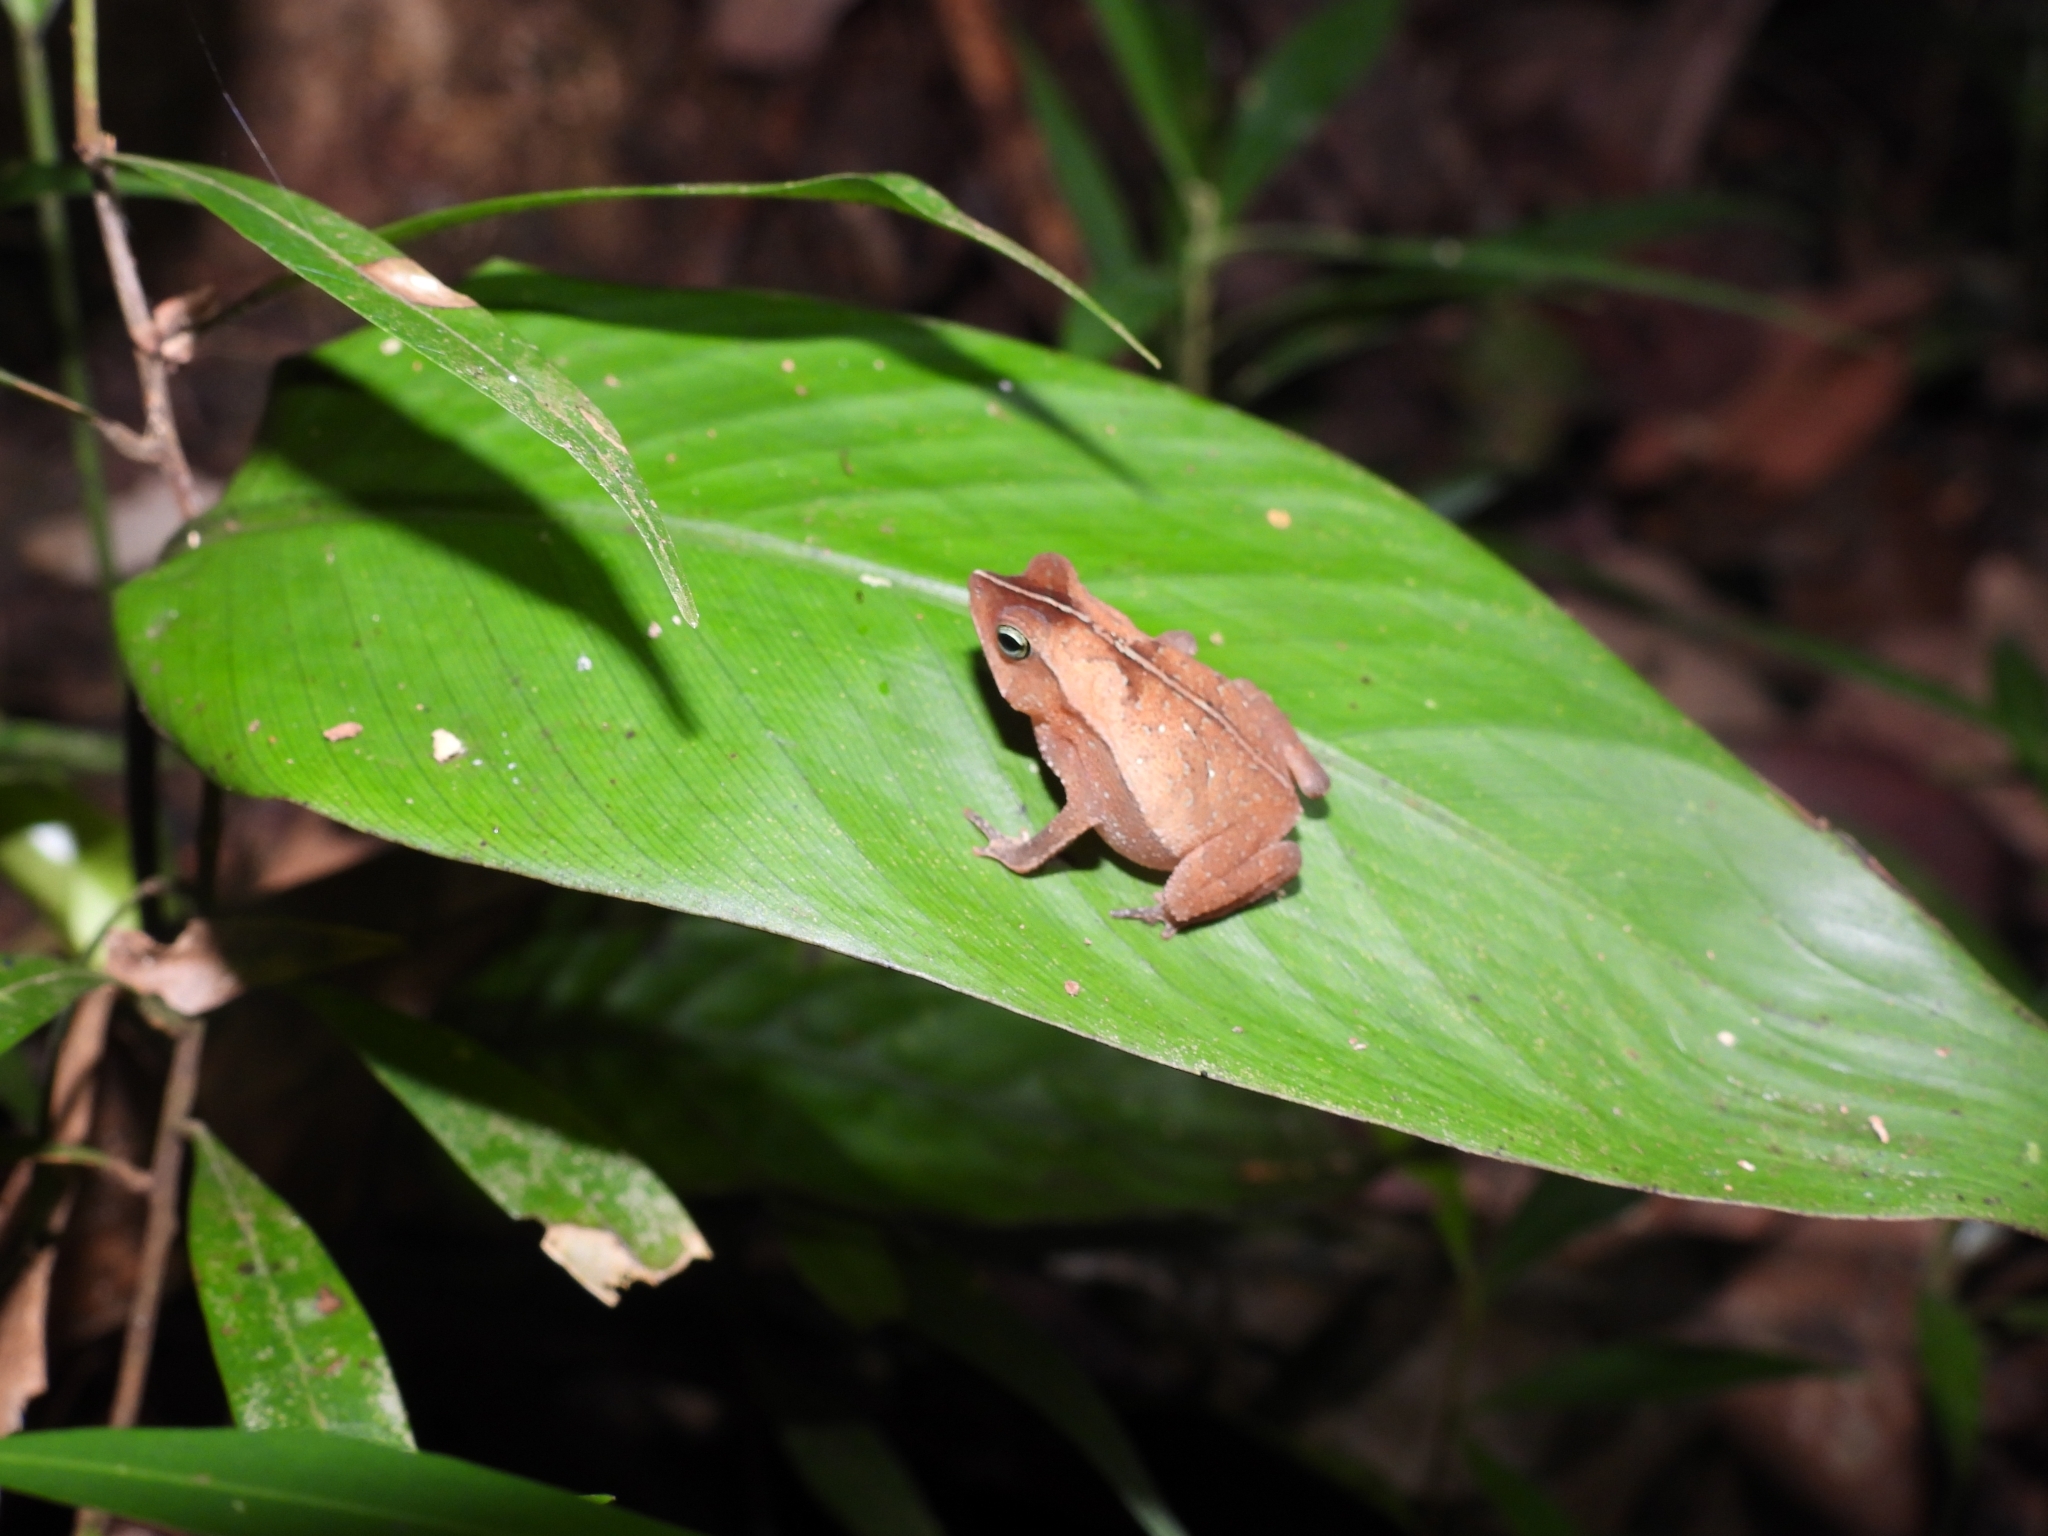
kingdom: Animalia
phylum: Chordata
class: Amphibia
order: Anura
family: Bufonidae
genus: Rhinella
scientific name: Rhinella margaritifera
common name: Mitred toad
